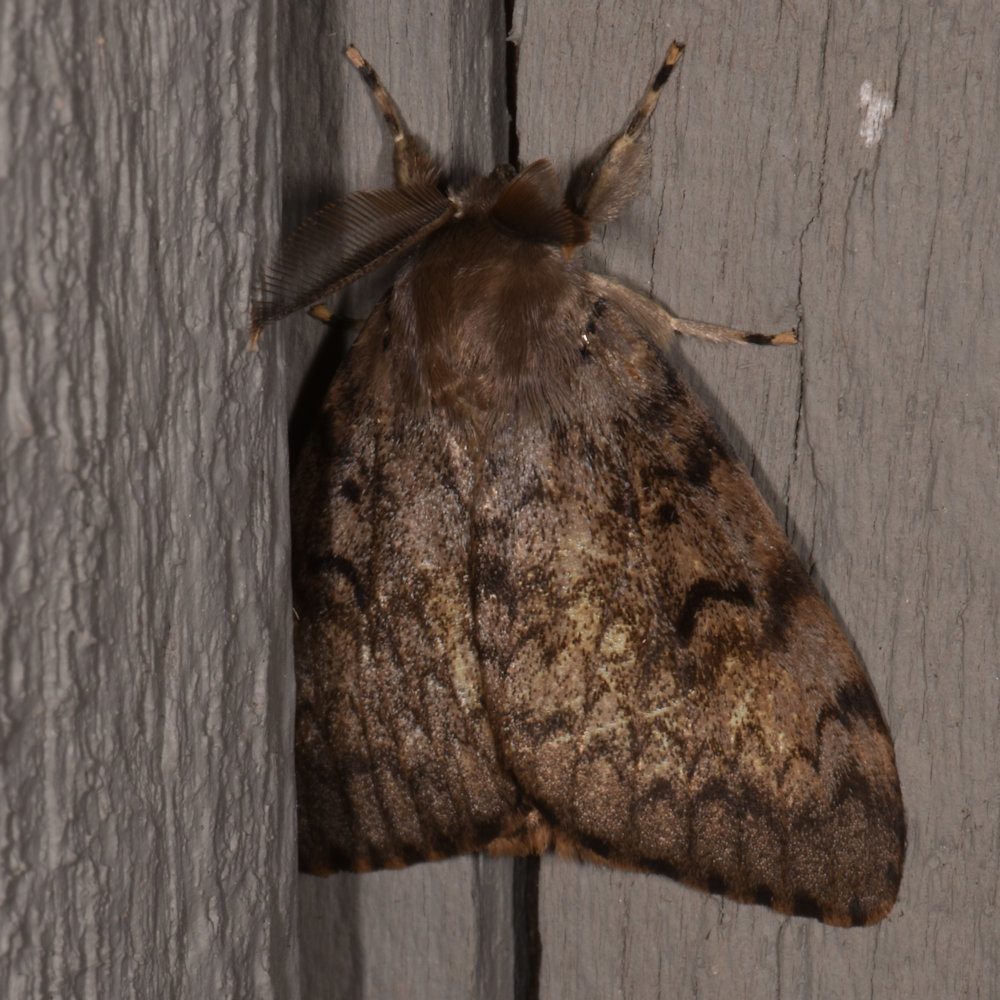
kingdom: Animalia
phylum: Arthropoda
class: Insecta
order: Lepidoptera
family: Erebidae
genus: Lymantria
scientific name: Lymantria dispar
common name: Gypsy moth
